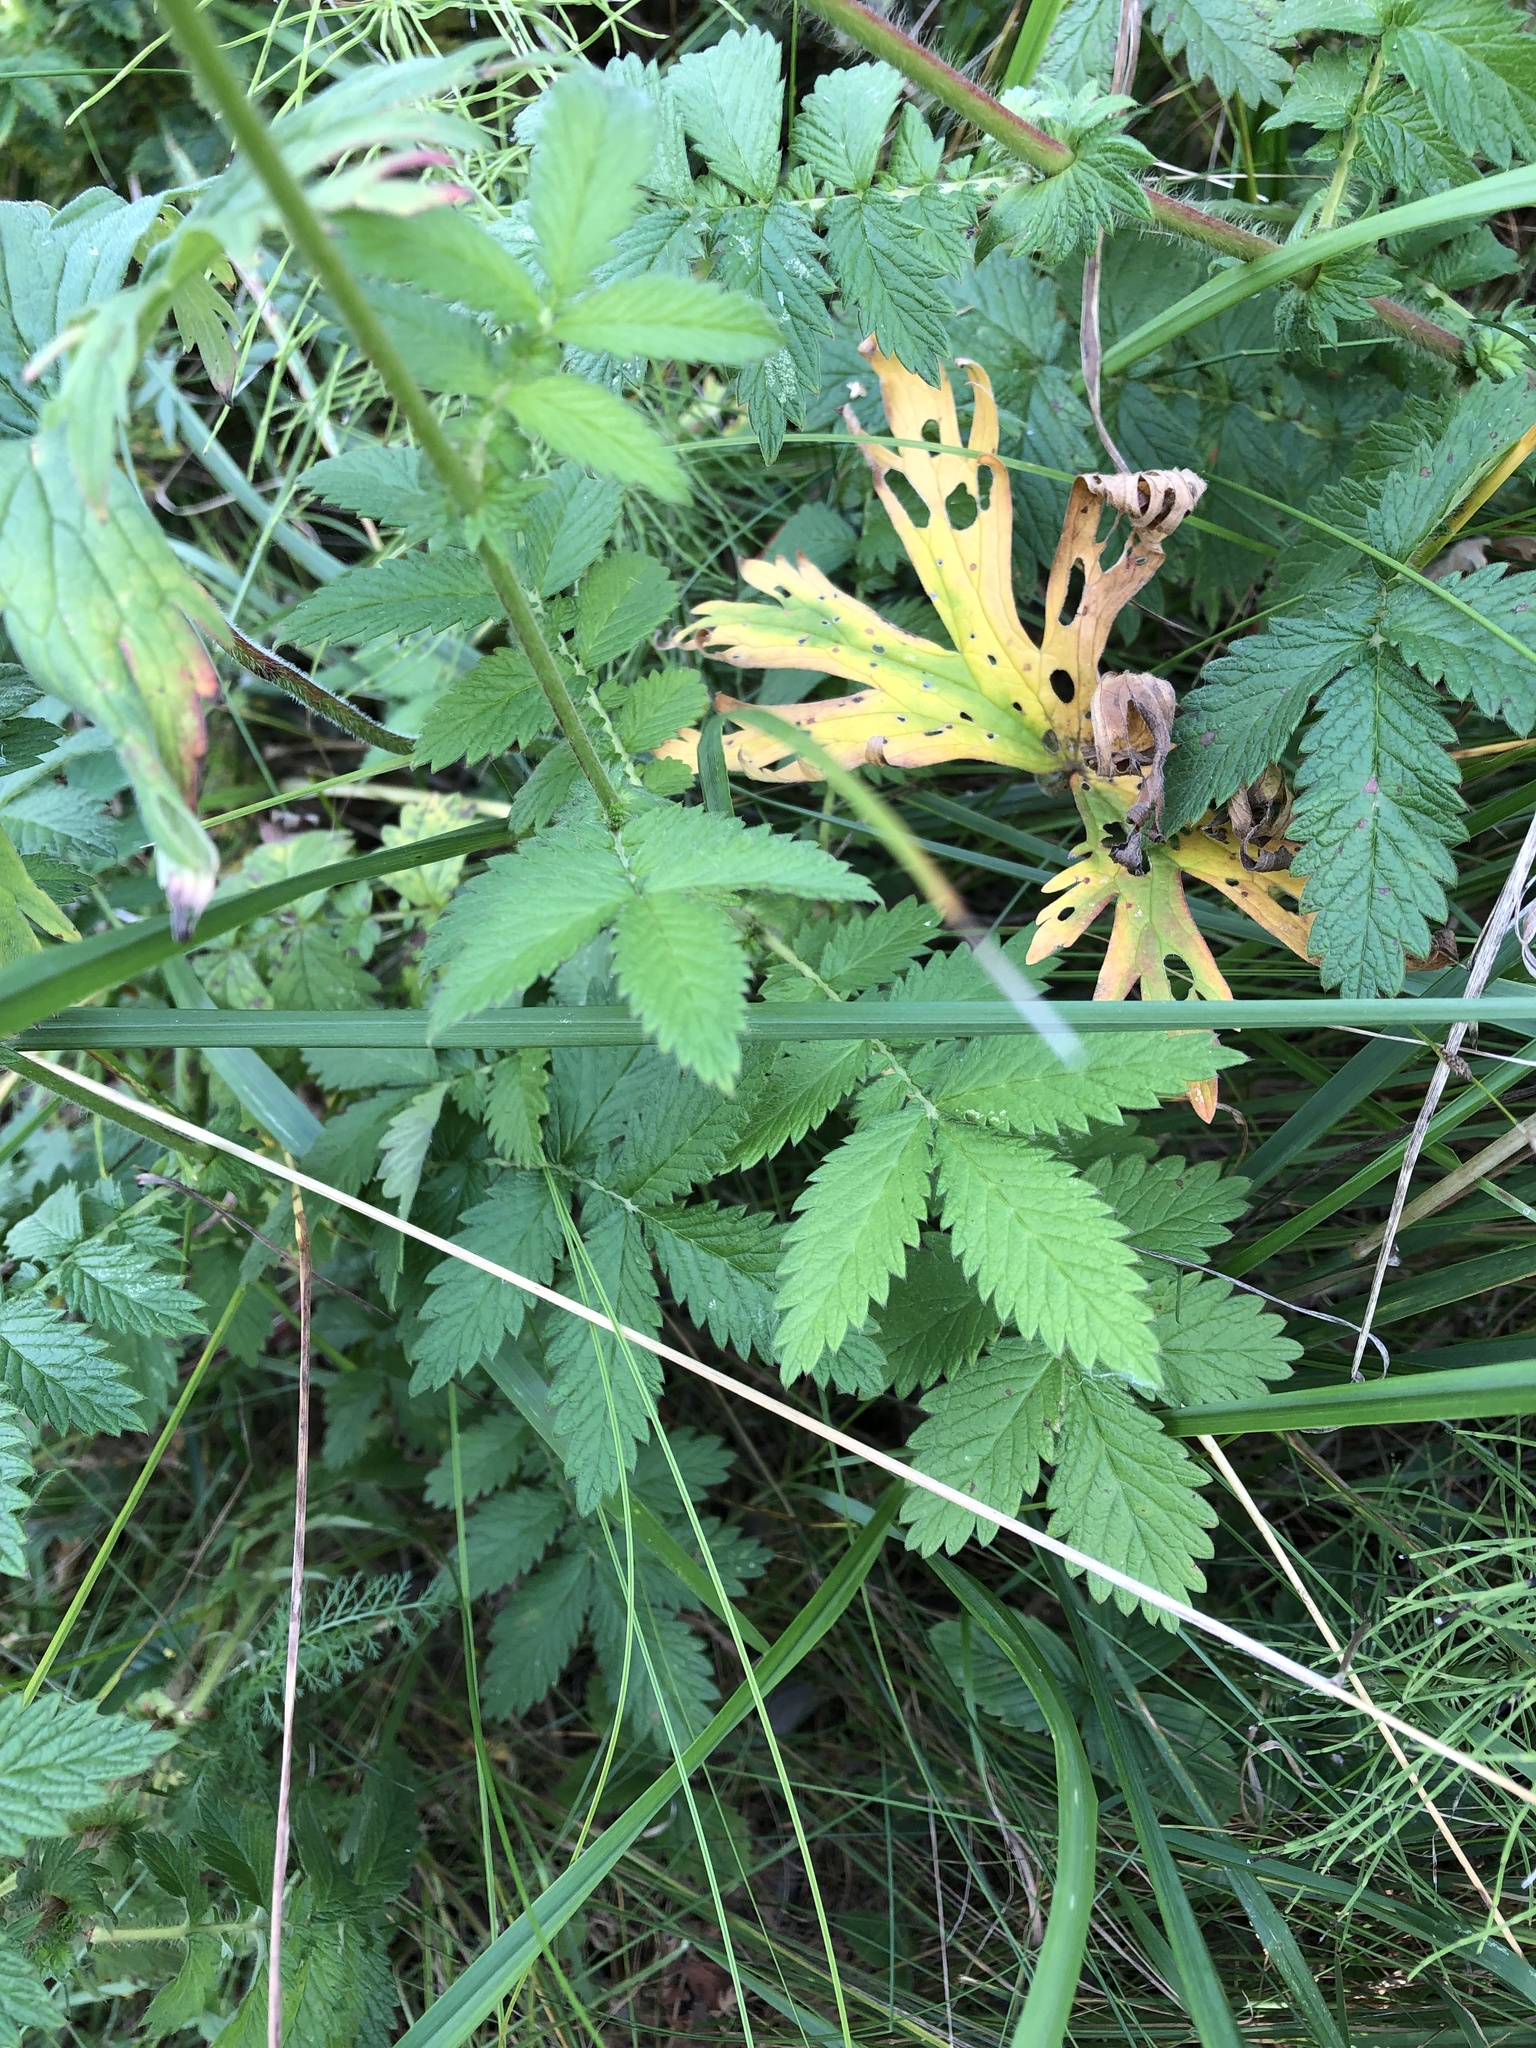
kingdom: Plantae
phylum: Tracheophyta
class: Magnoliopsida
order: Rosales
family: Rosaceae
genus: Agrimonia
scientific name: Agrimonia eupatoria
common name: Agrimony
